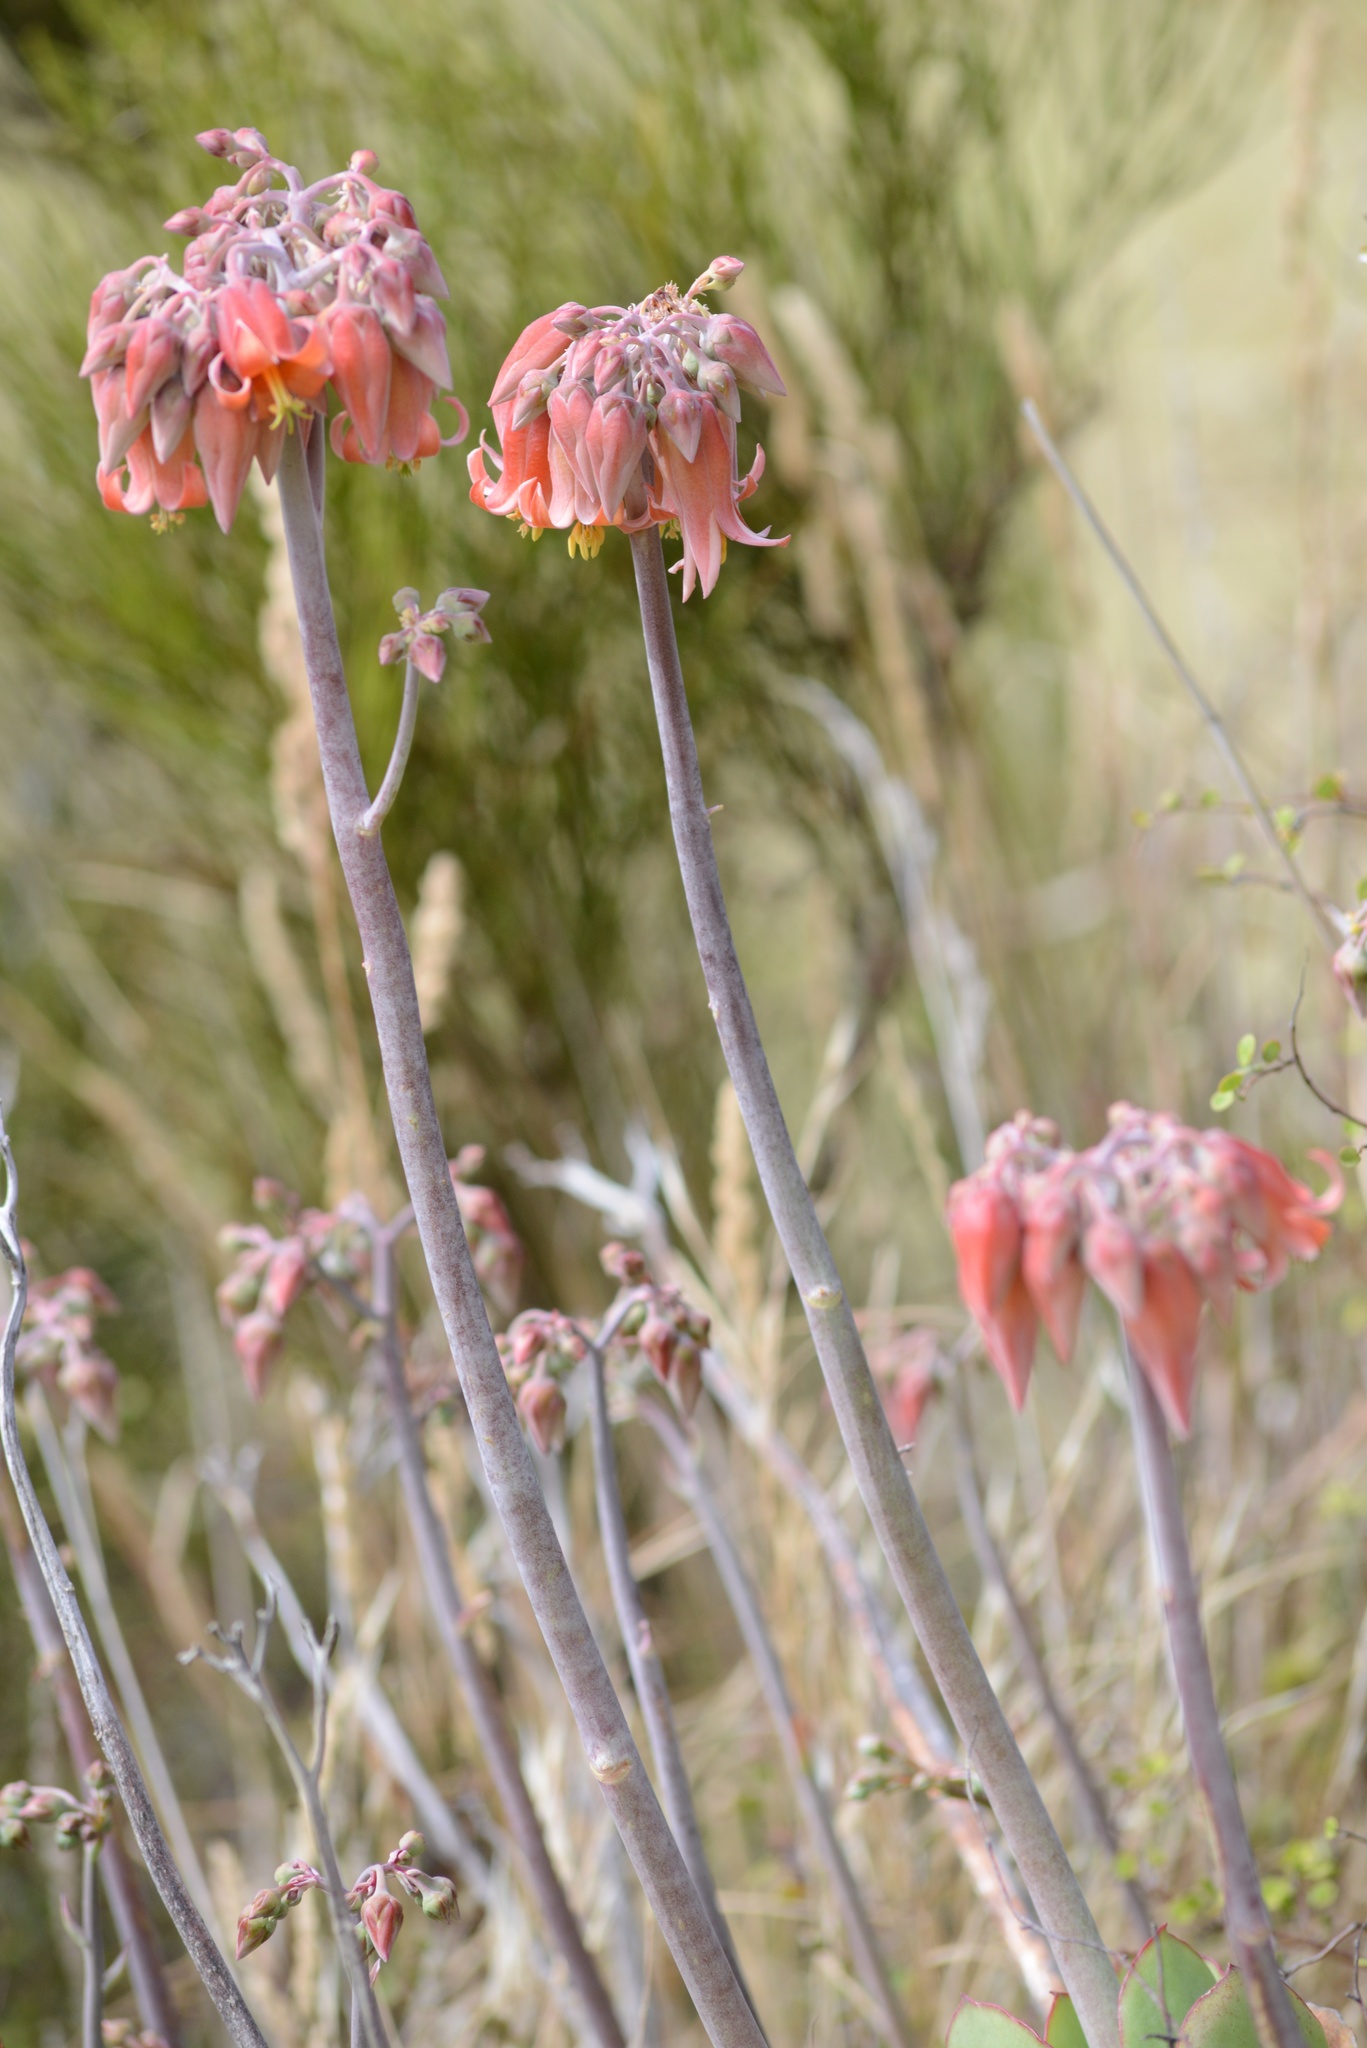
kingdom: Plantae
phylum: Tracheophyta
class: Magnoliopsida
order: Saxifragales
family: Crassulaceae
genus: Cotyledon
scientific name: Cotyledon orbiculata
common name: Pig's ear
